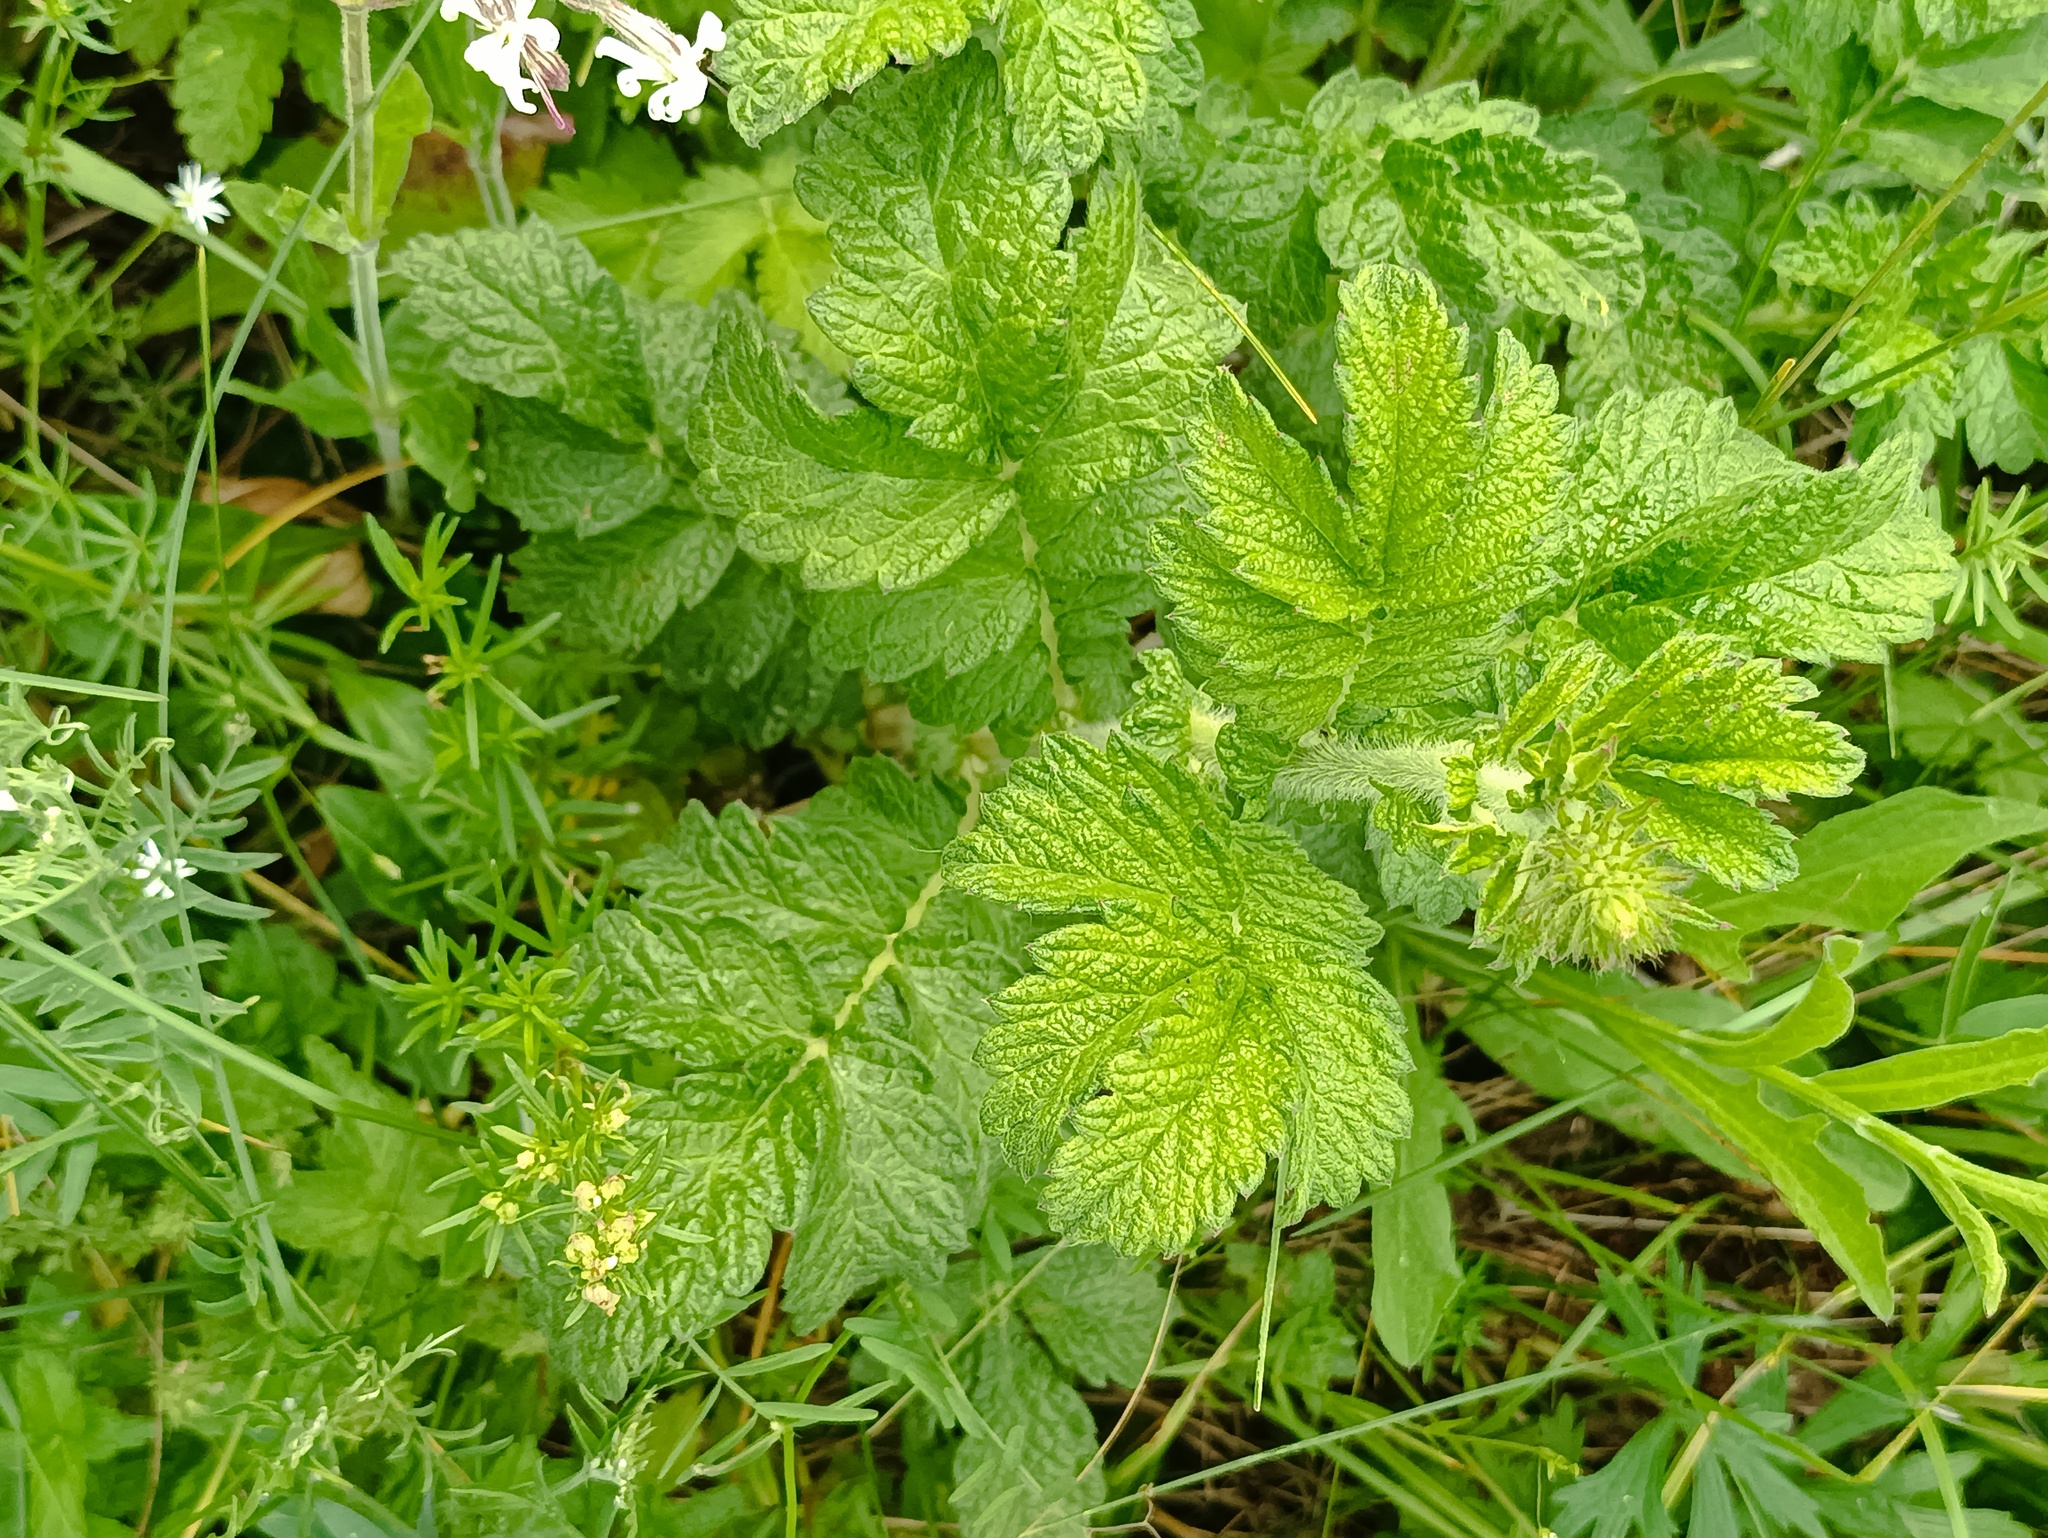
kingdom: Plantae
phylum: Tracheophyta
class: Magnoliopsida
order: Rosales
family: Rosaceae
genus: Agrimonia
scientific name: Agrimonia eupatoria
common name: Agrimony
